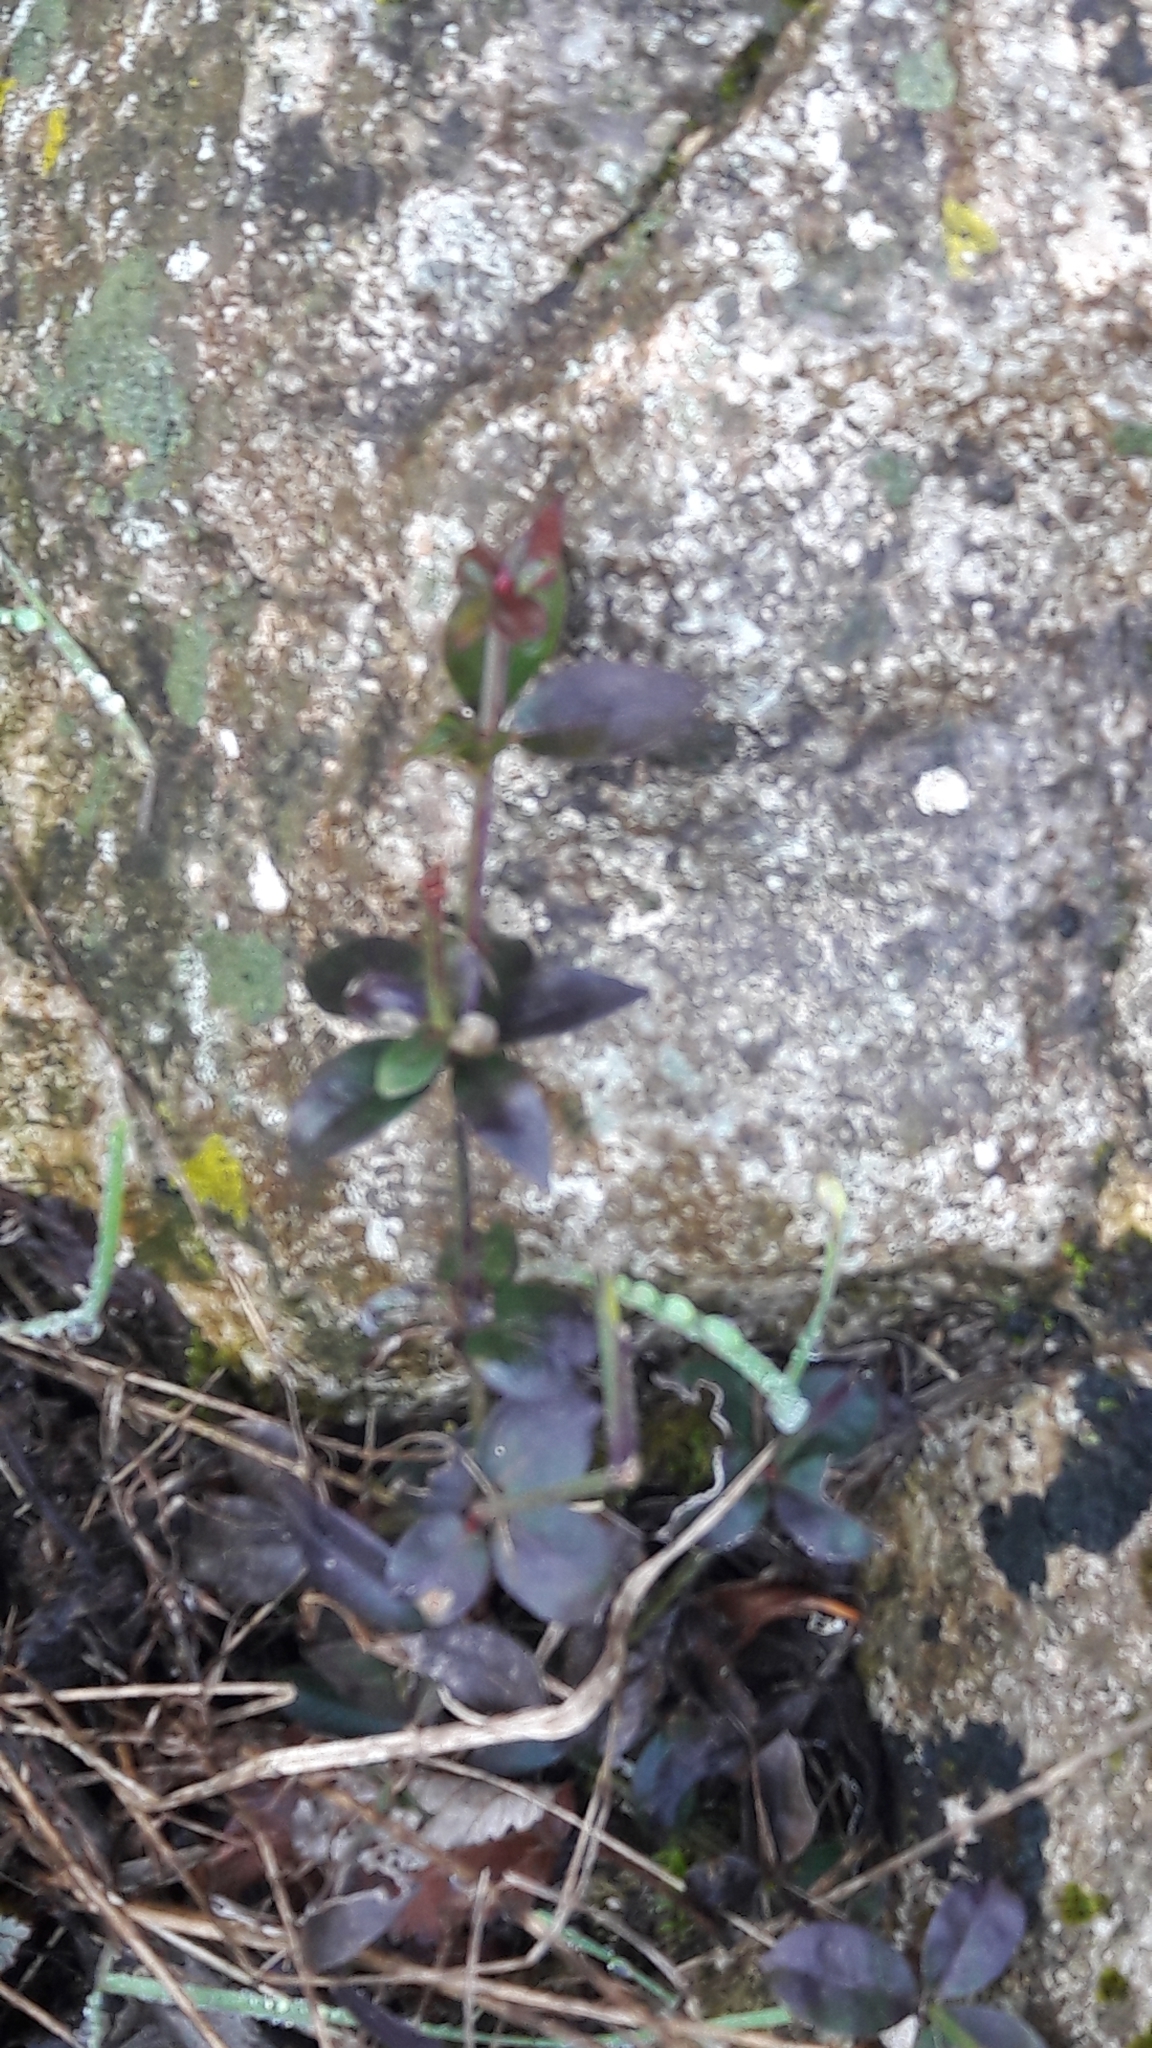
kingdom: Plantae
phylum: Tracheophyta
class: Magnoliopsida
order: Gentianales
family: Rubiaceae
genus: Rubia
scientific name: Rubia peregrina
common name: Wild madder
